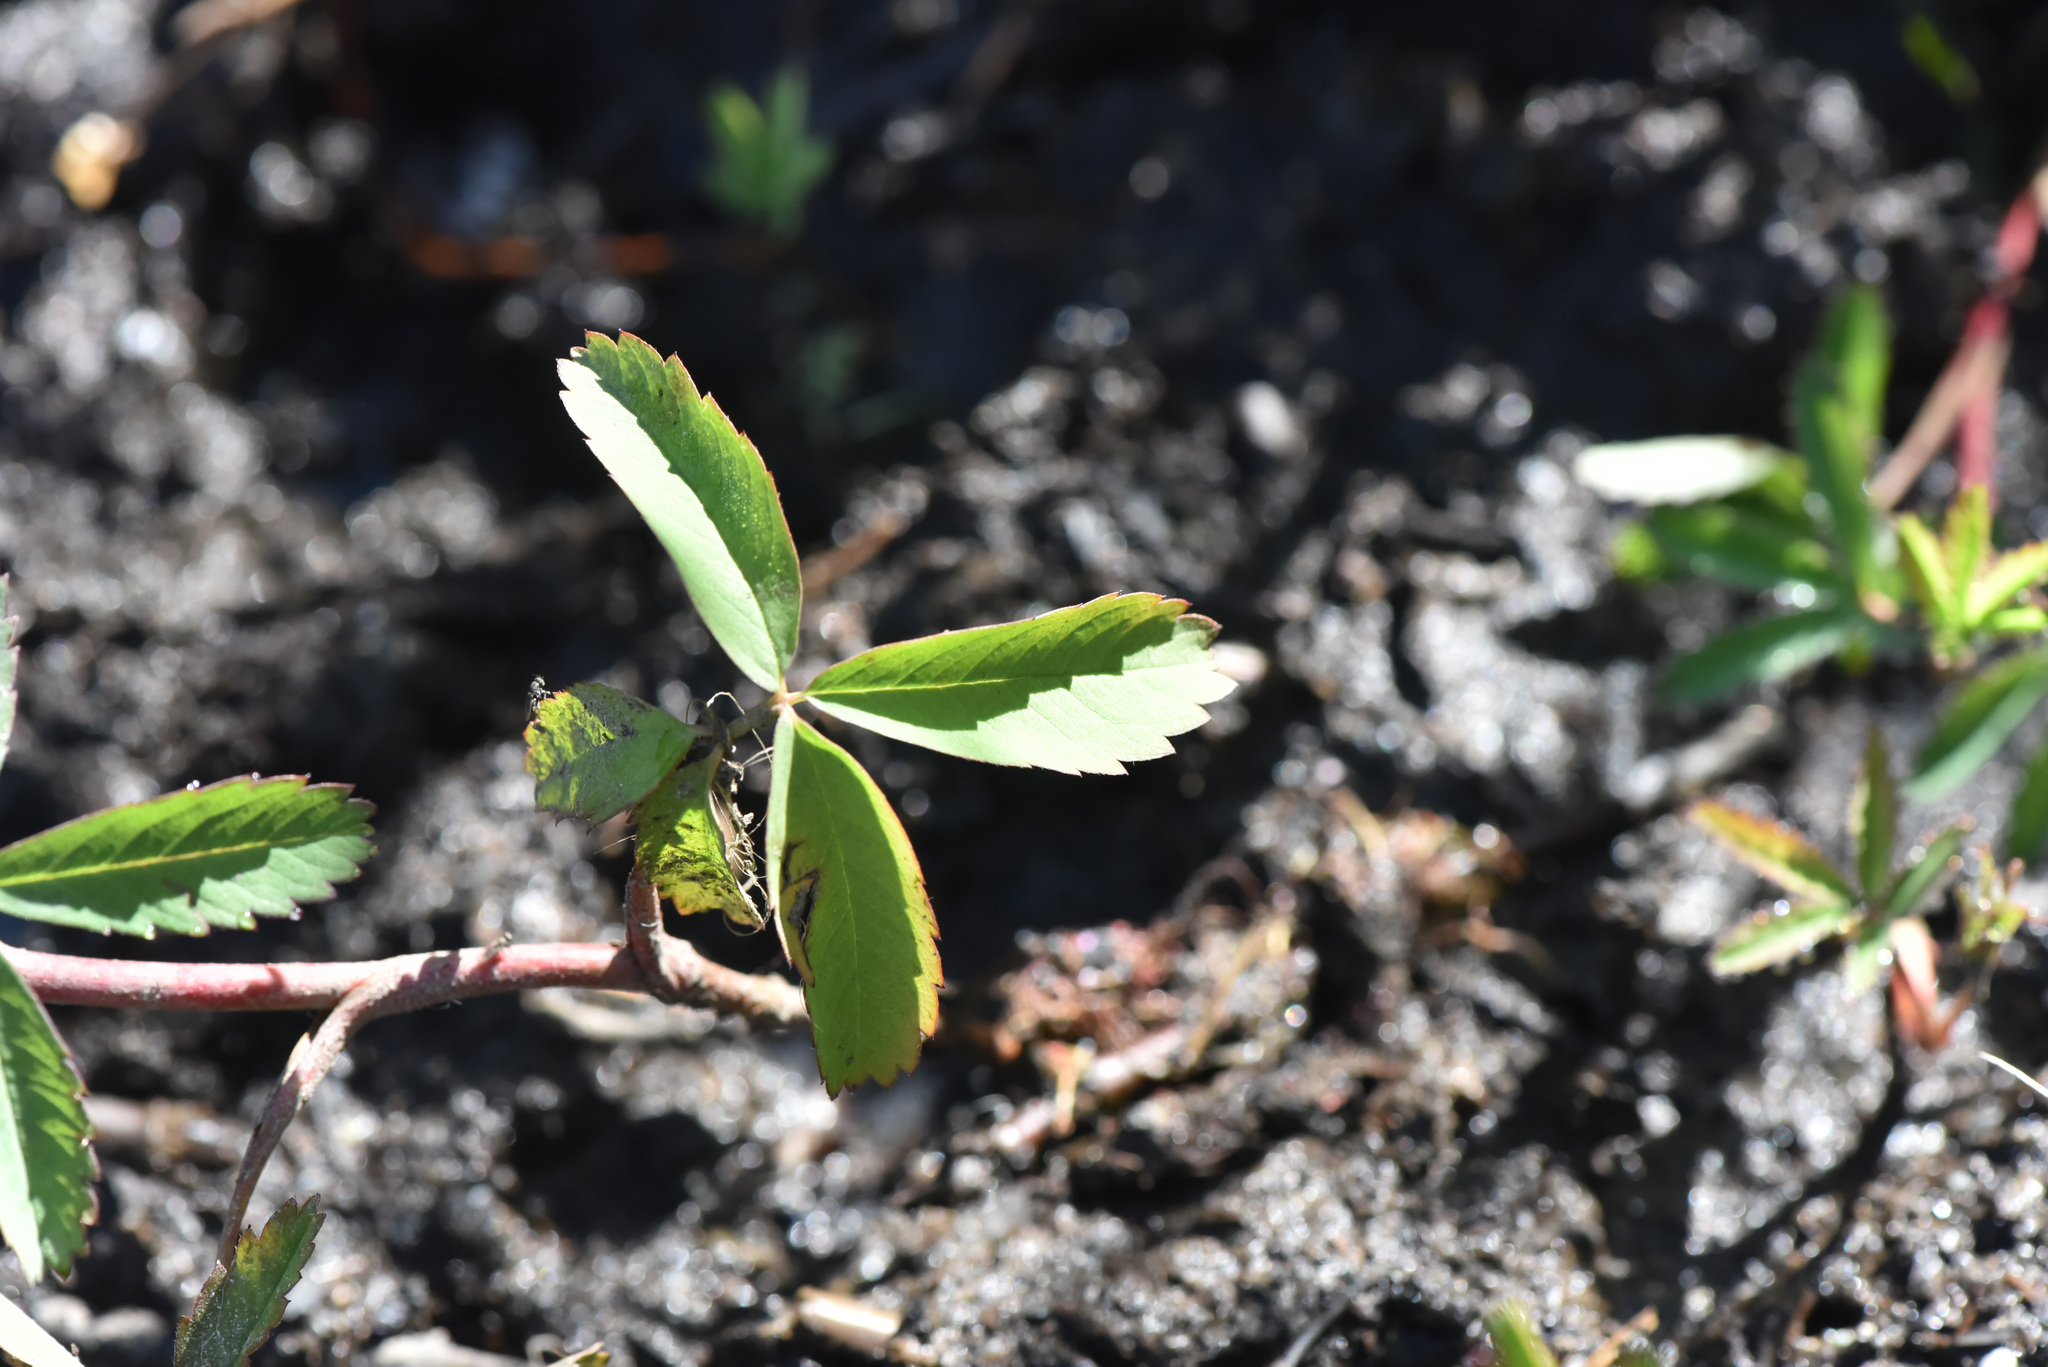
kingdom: Plantae
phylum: Tracheophyta
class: Magnoliopsida
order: Rosales
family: Rosaceae
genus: Comarum
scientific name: Comarum palustre
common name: Marsh cinquefoil
